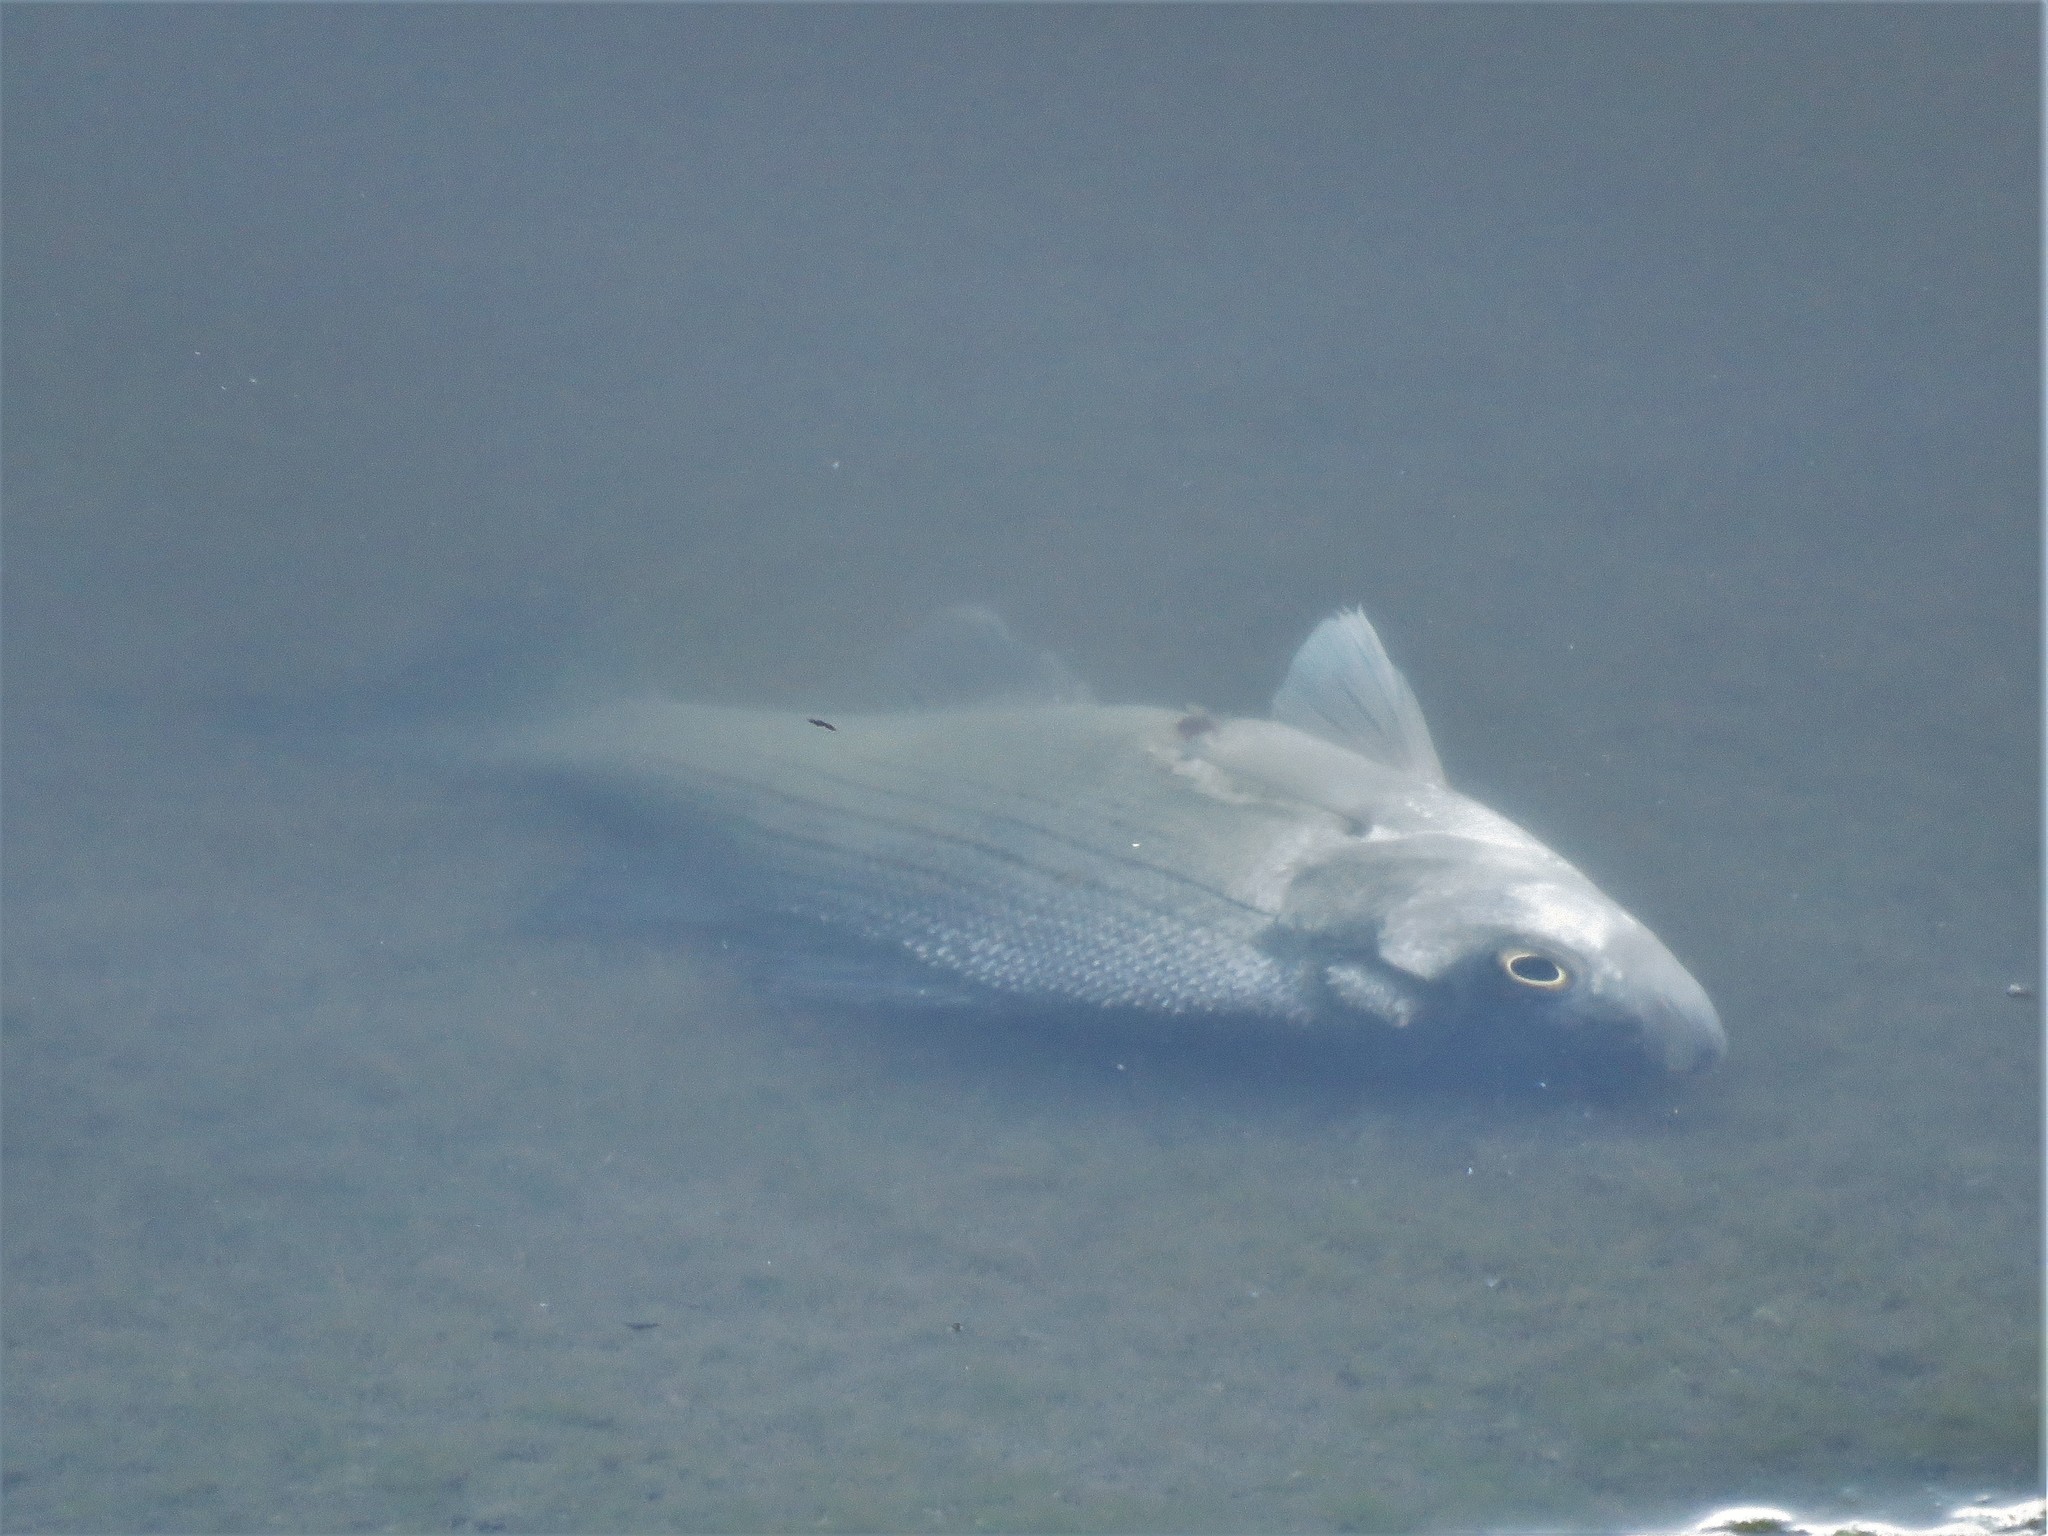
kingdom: Animalia
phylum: Chordata
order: Perciformes
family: Moronidae
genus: Morone
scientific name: Morone chrysops
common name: White bass
